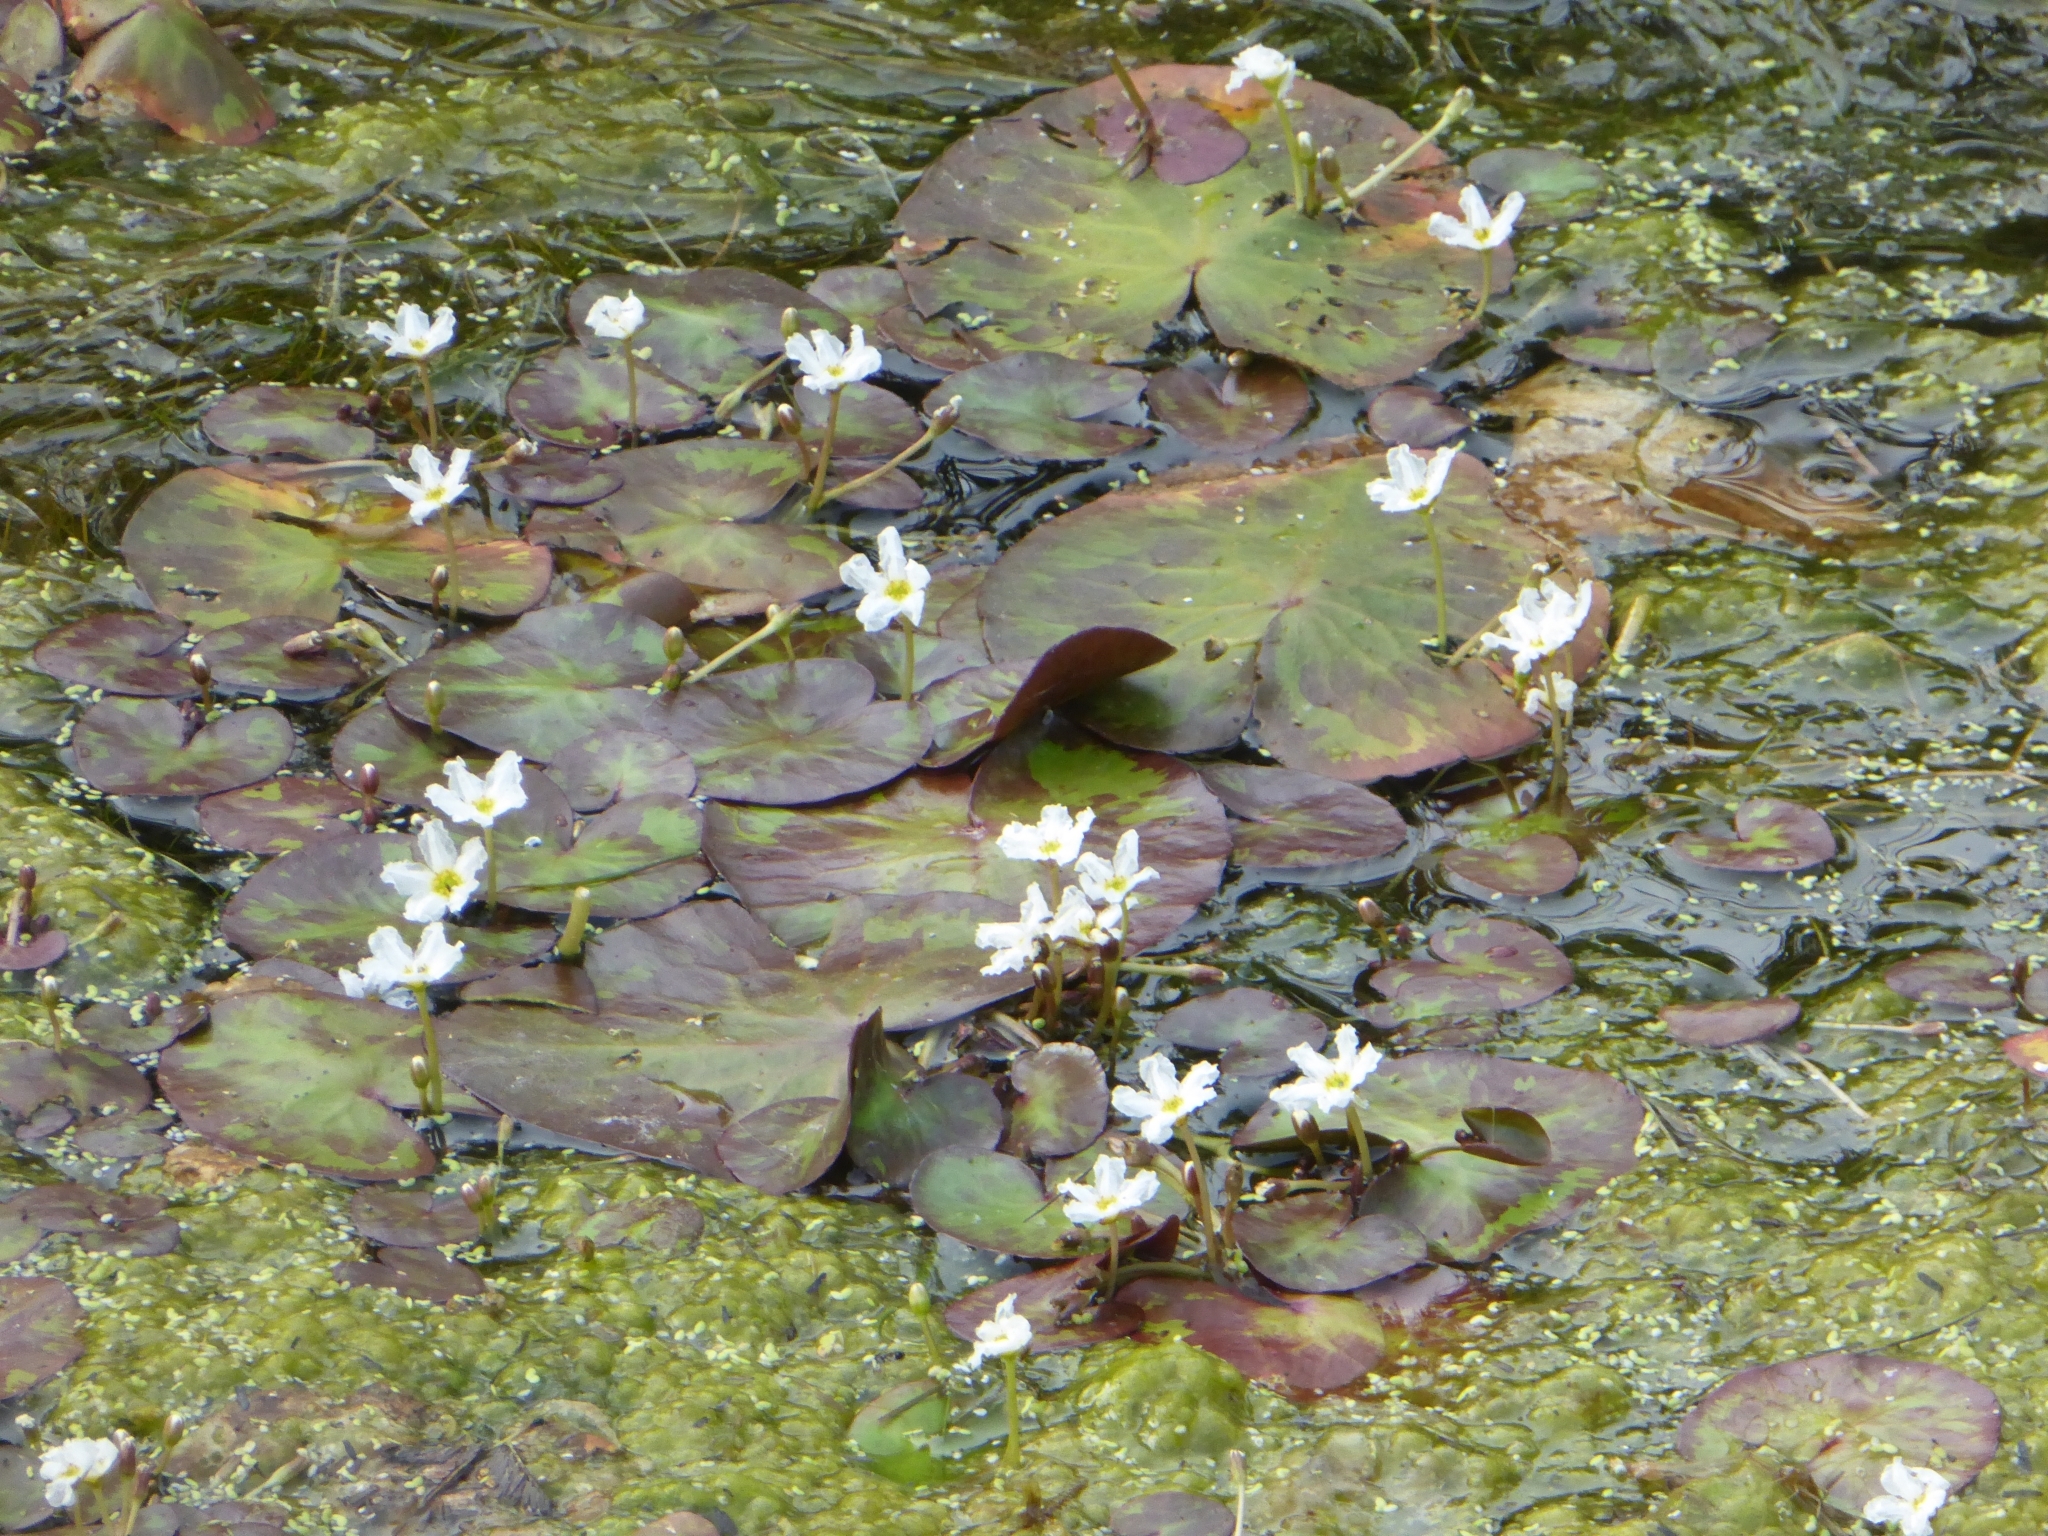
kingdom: Plantae
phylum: Tracheophyta
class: Magnoliopsida
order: Asterales
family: Menyanthaceae
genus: Nymphoides
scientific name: Nymphoides indica
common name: Water-snowflake
